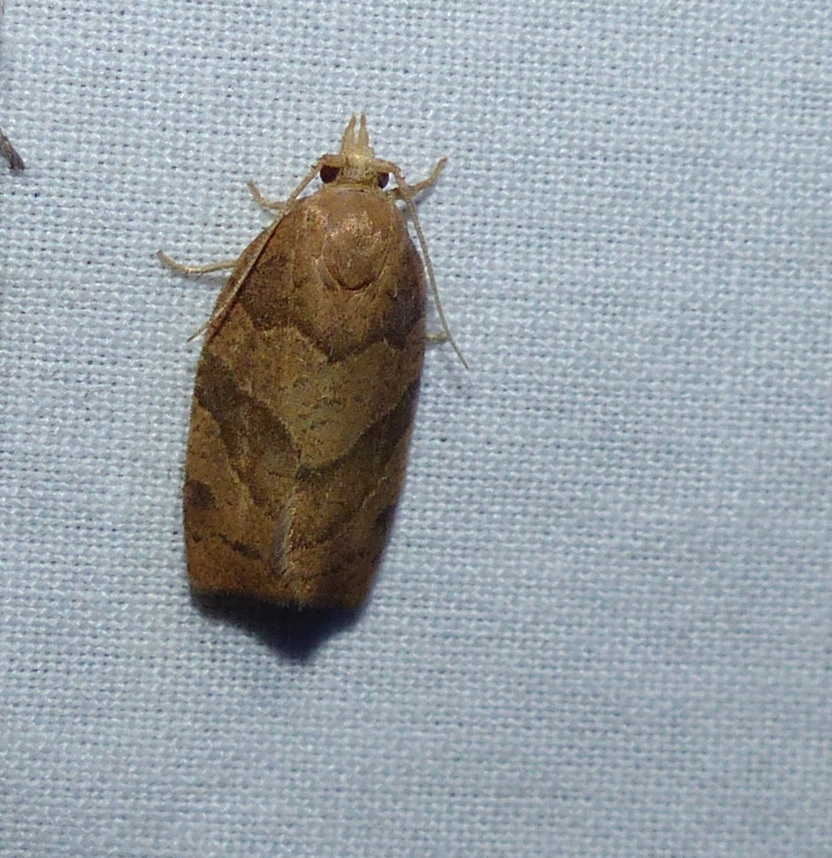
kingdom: Animalia
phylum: Arthropoda
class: Insecta
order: Lepidoptera
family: Tortricidae
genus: Pandemis
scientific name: Pandemis lamprosana
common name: Woodgrain leafroller moth
